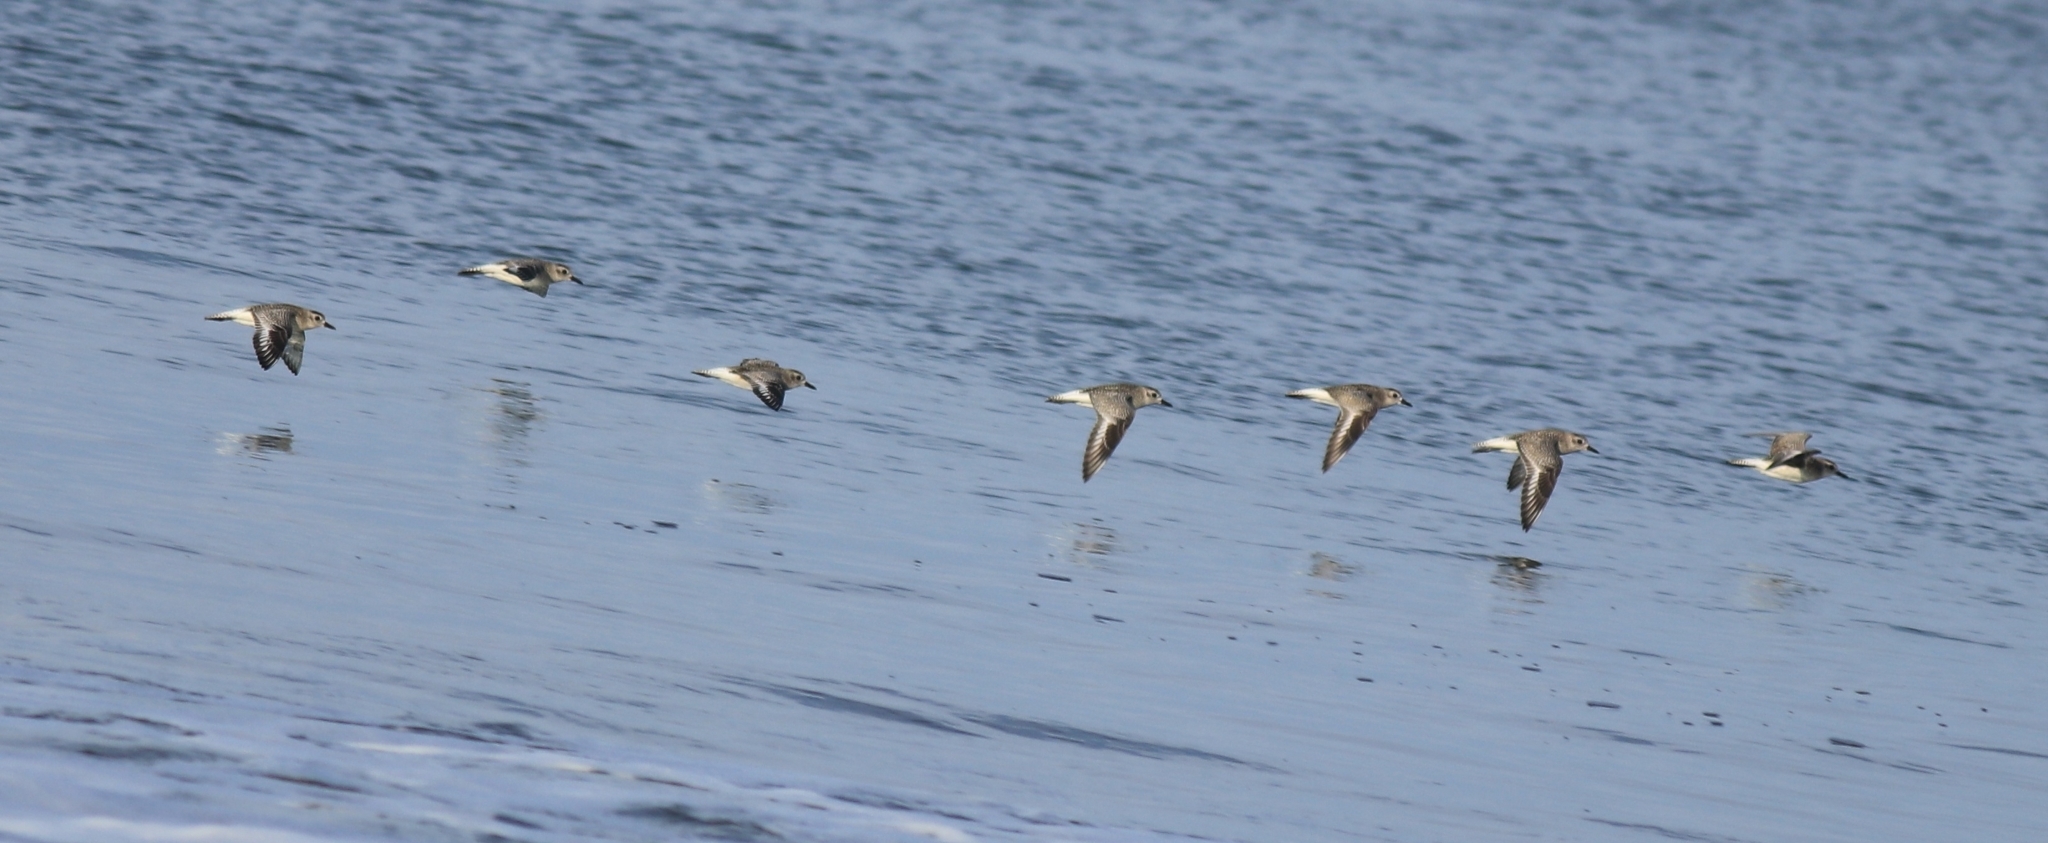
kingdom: Animalia
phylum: Chordata
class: Aves
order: Charadriiformes
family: Charadriidae
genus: Pluvialis
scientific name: Pluvialis squatarola
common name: Grey plover
